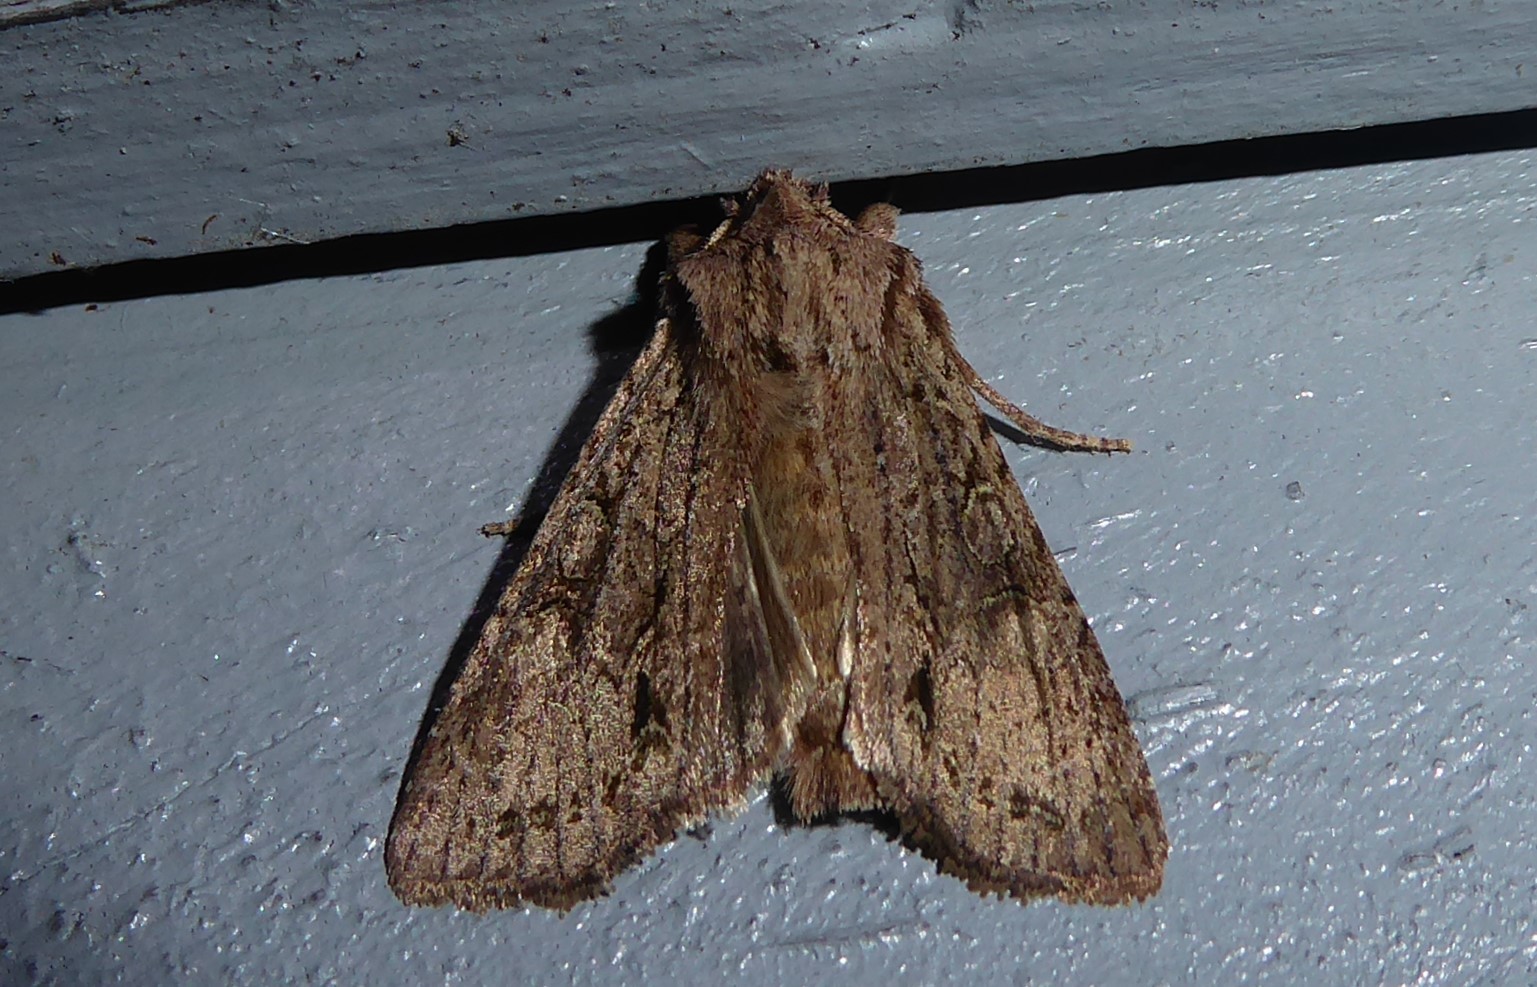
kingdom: Animalia
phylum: Arthropoda
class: Insecta
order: Lepidoptera
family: Noctuidae
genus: Ichneutica
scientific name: Ichneutica mutans
